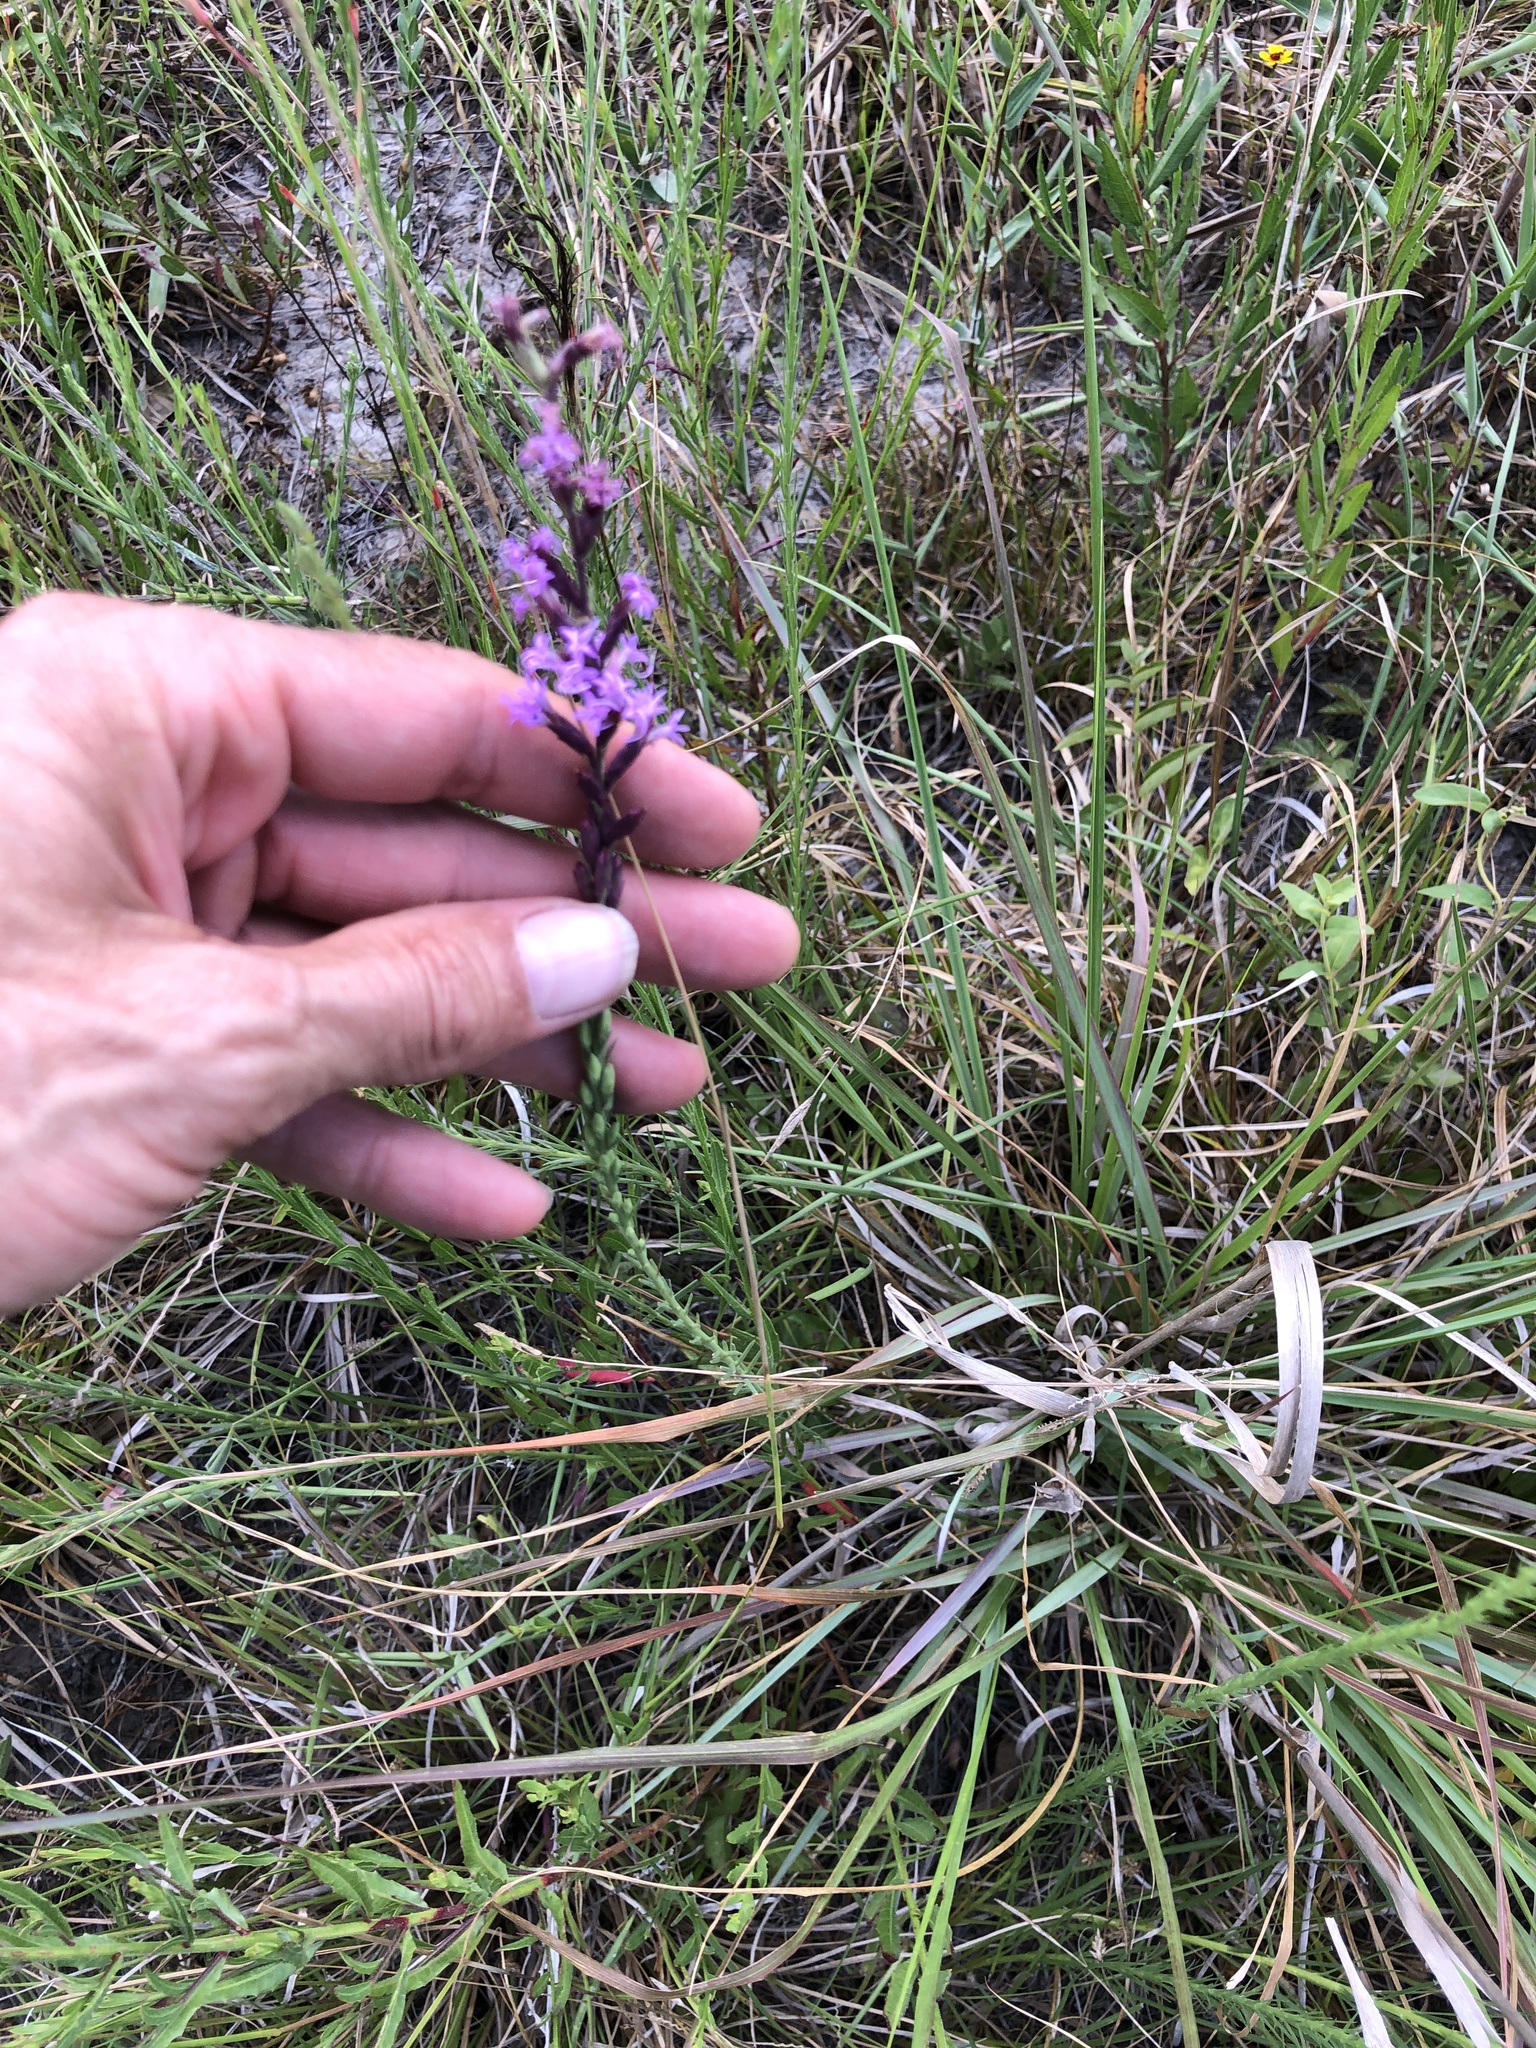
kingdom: Plantae
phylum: Tracheophyta
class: Magnoliopsida
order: Asterales
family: Asteraceae
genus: Liatris
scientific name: Liatris acidota
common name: Gulf coast gayfeather
